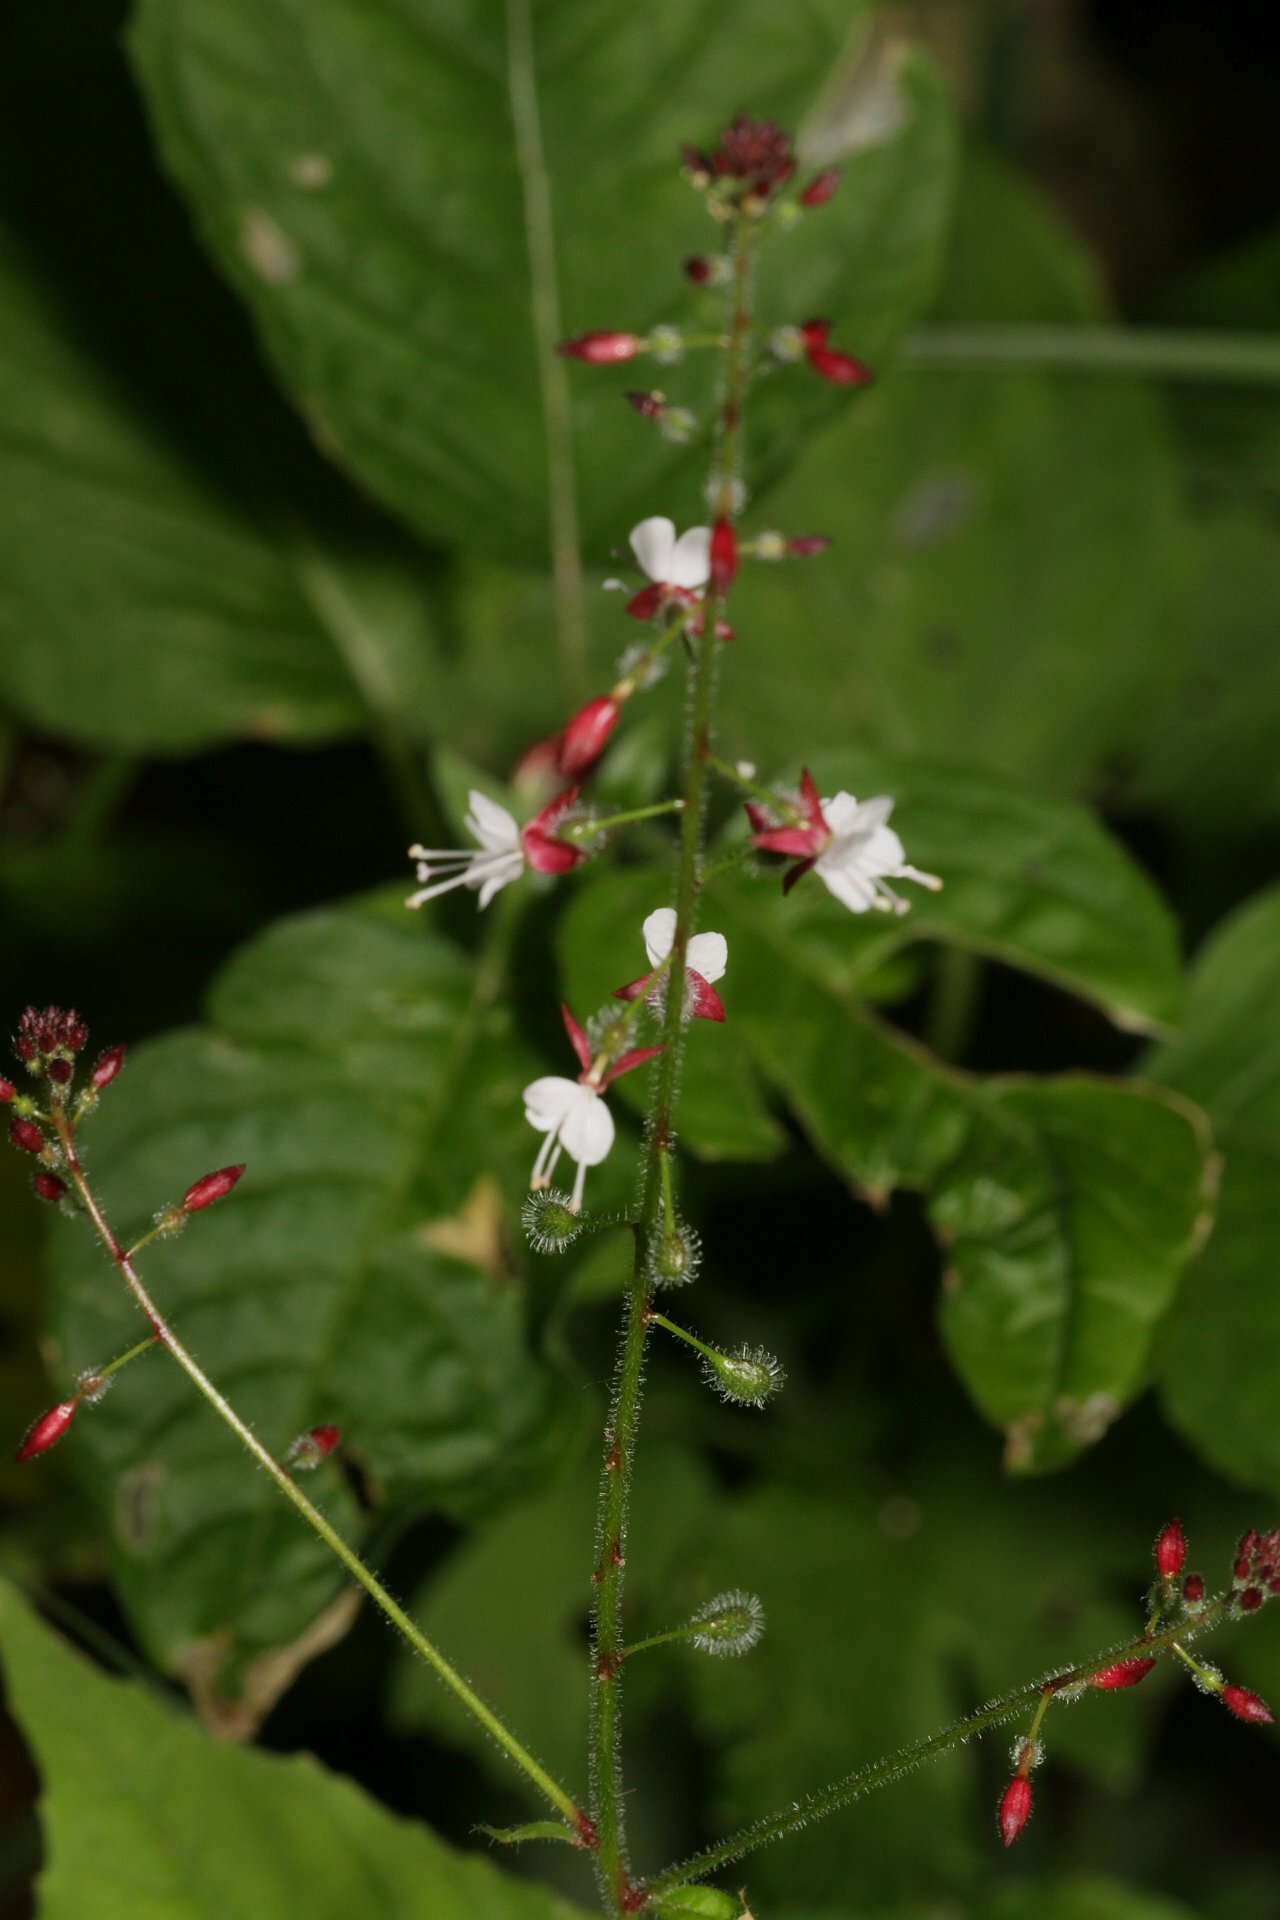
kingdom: Plantae
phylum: Tracheophyta
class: Magnoliopsida
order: Myrtales
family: Onagraceae
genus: Circaea
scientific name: Circaea lutetiana
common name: Enchanter's-nightshade
